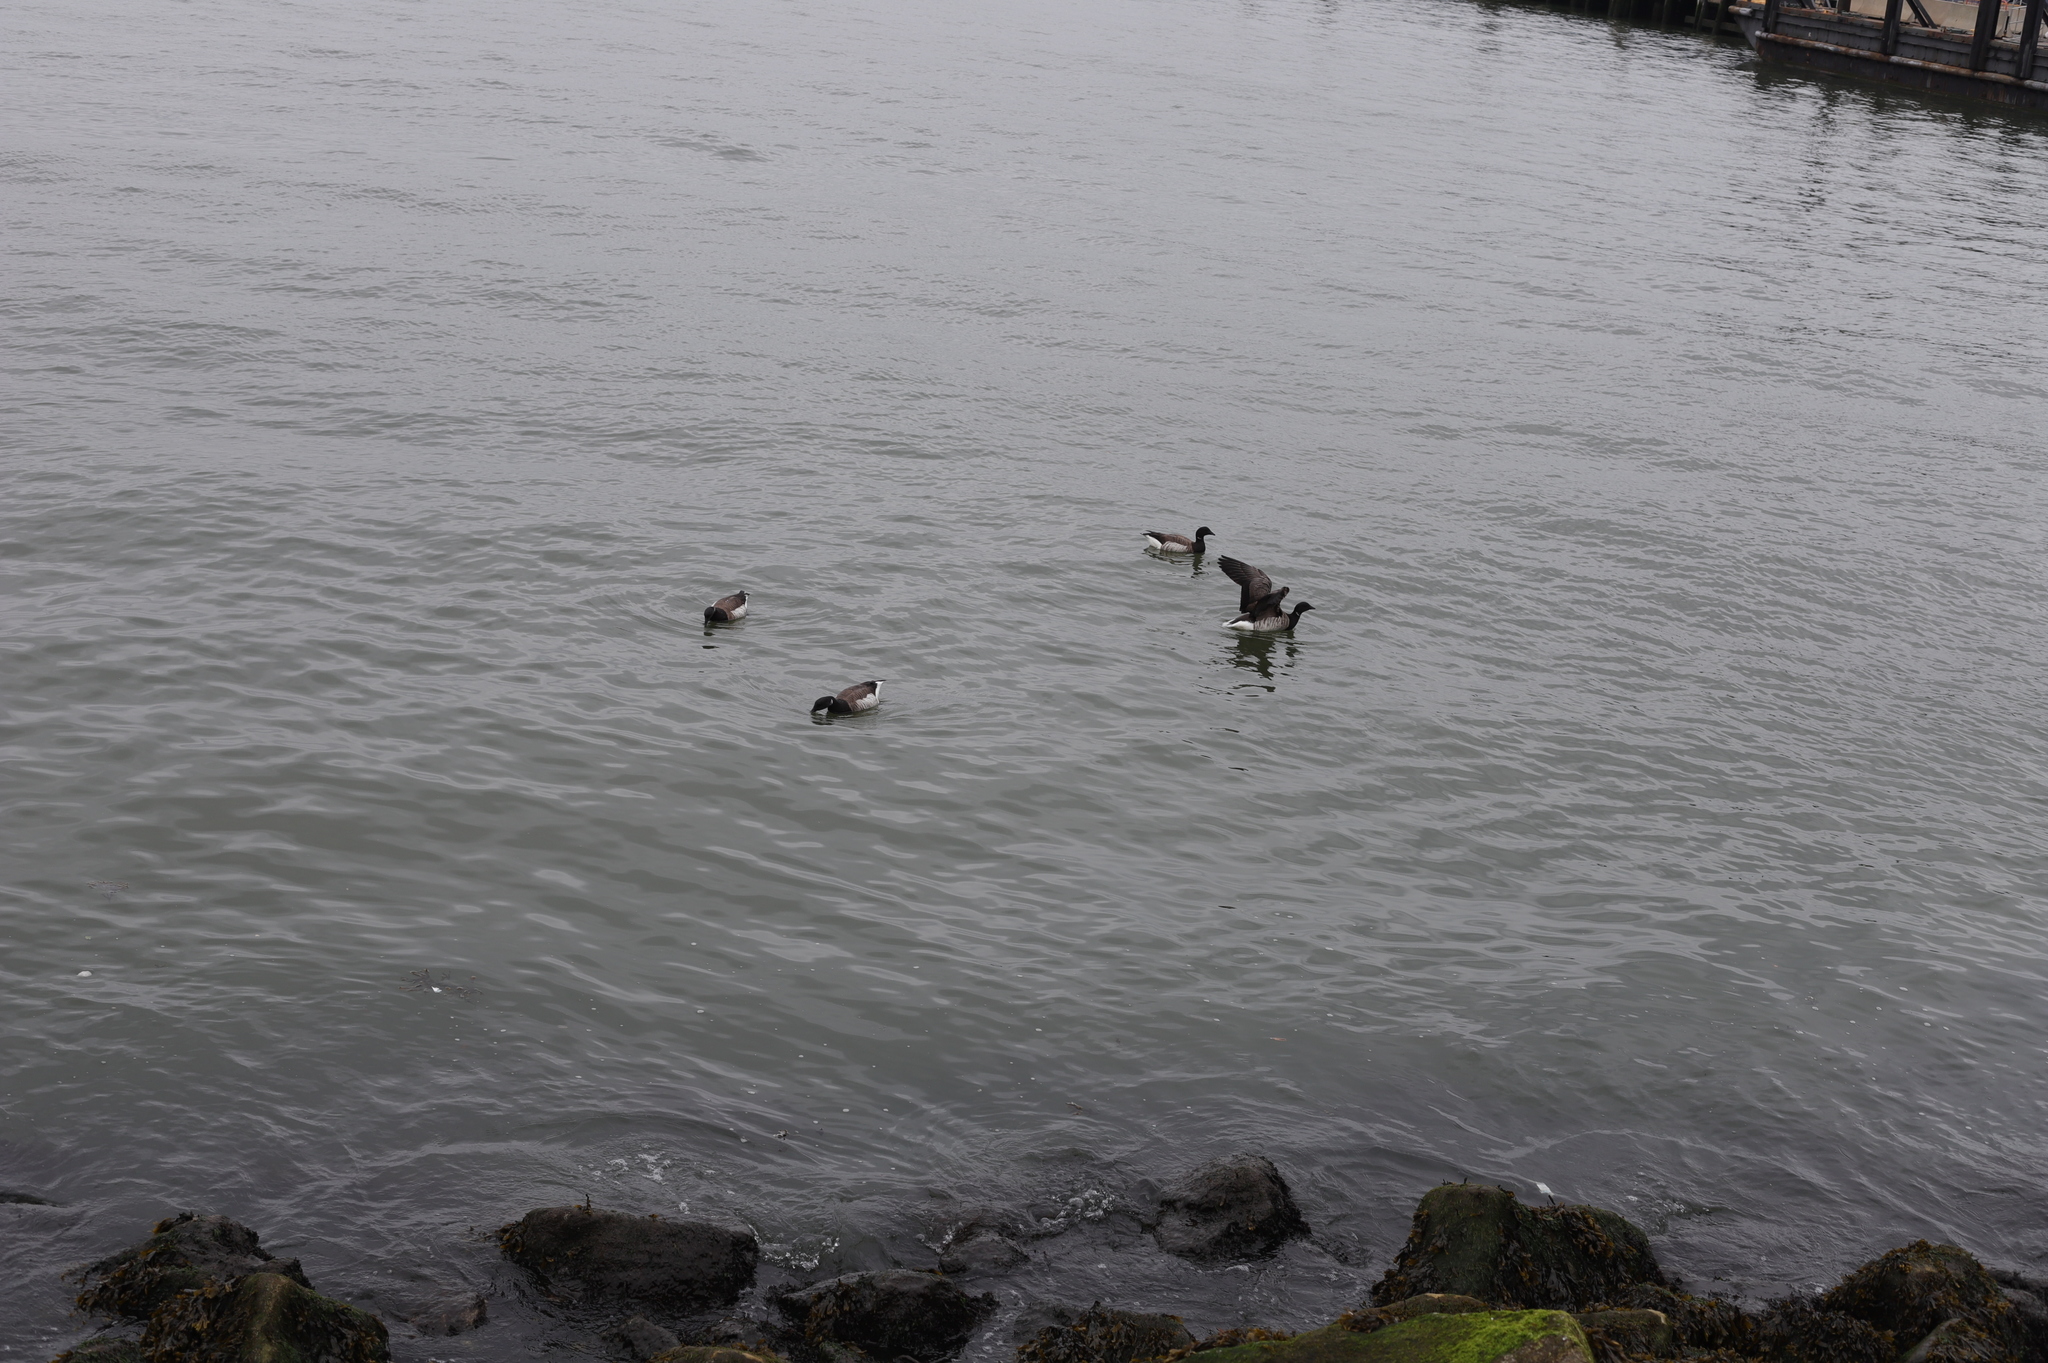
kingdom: Animalia
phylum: Chordata
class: Aves
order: Anseriformes
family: Anatidae
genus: Branta
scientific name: Branta bernicla
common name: Brant goose
